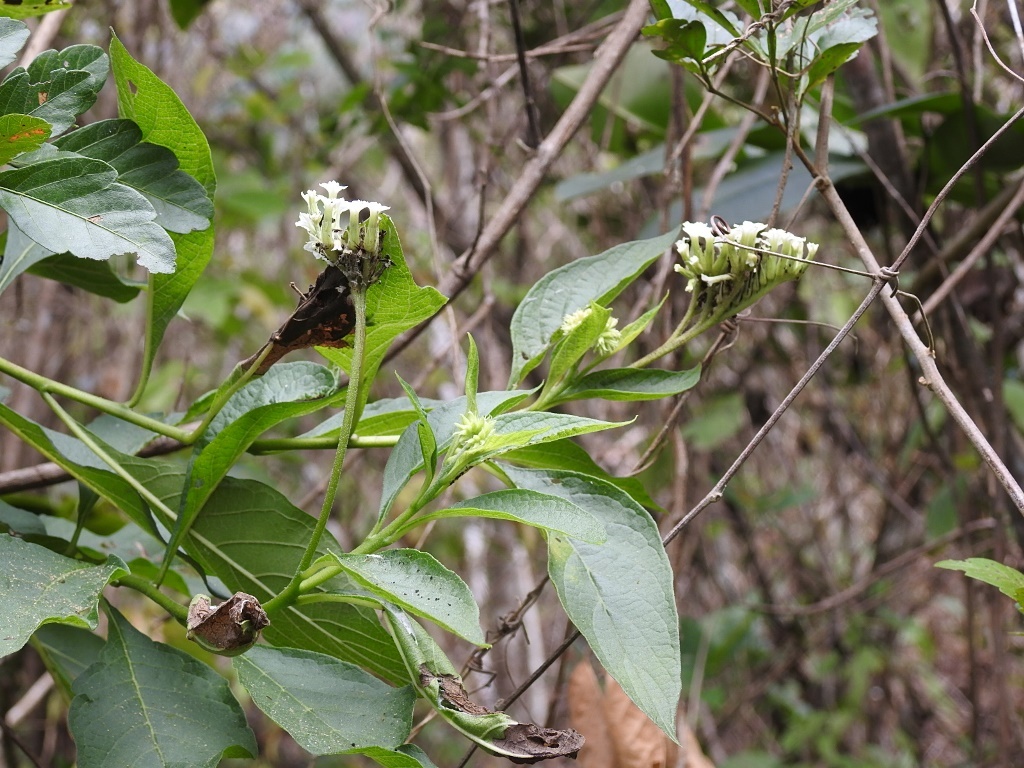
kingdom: Plantae
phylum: Tracheophyta
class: Magnoliopsida
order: Boraginales
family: Heliotropiaceae
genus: Tournefortia
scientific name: Tournefortia calycina
